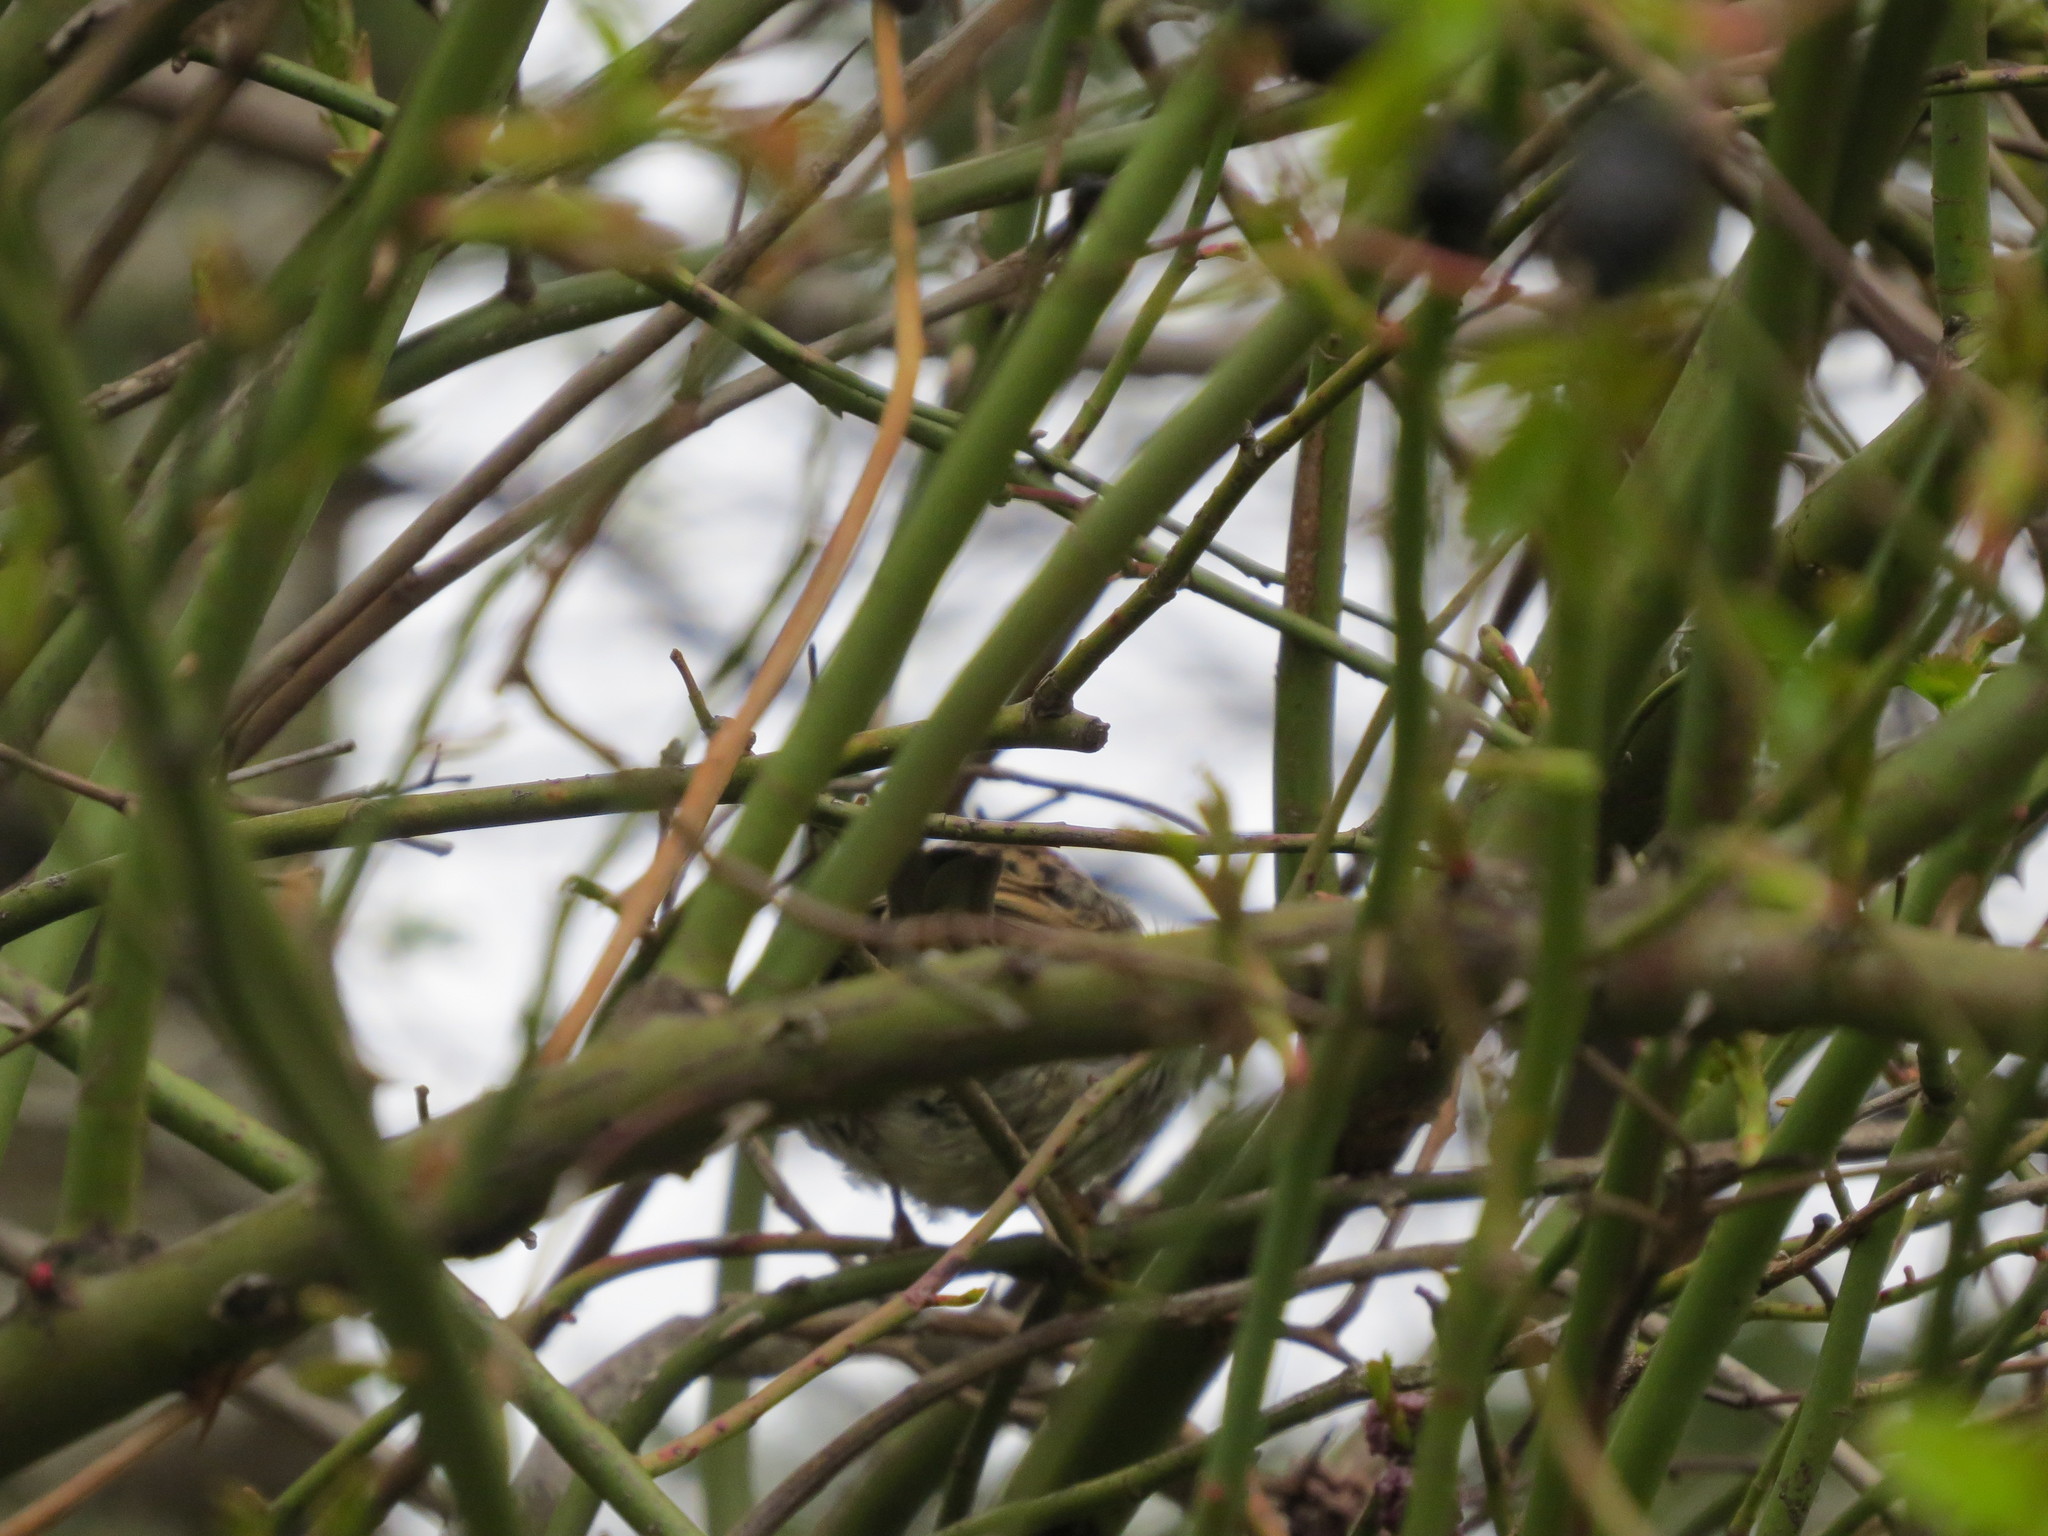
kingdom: Animalia
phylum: Chordata
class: Aves
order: Passeriformes
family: Passeridae
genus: Passer
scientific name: Passer domesticus
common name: House sparrow
